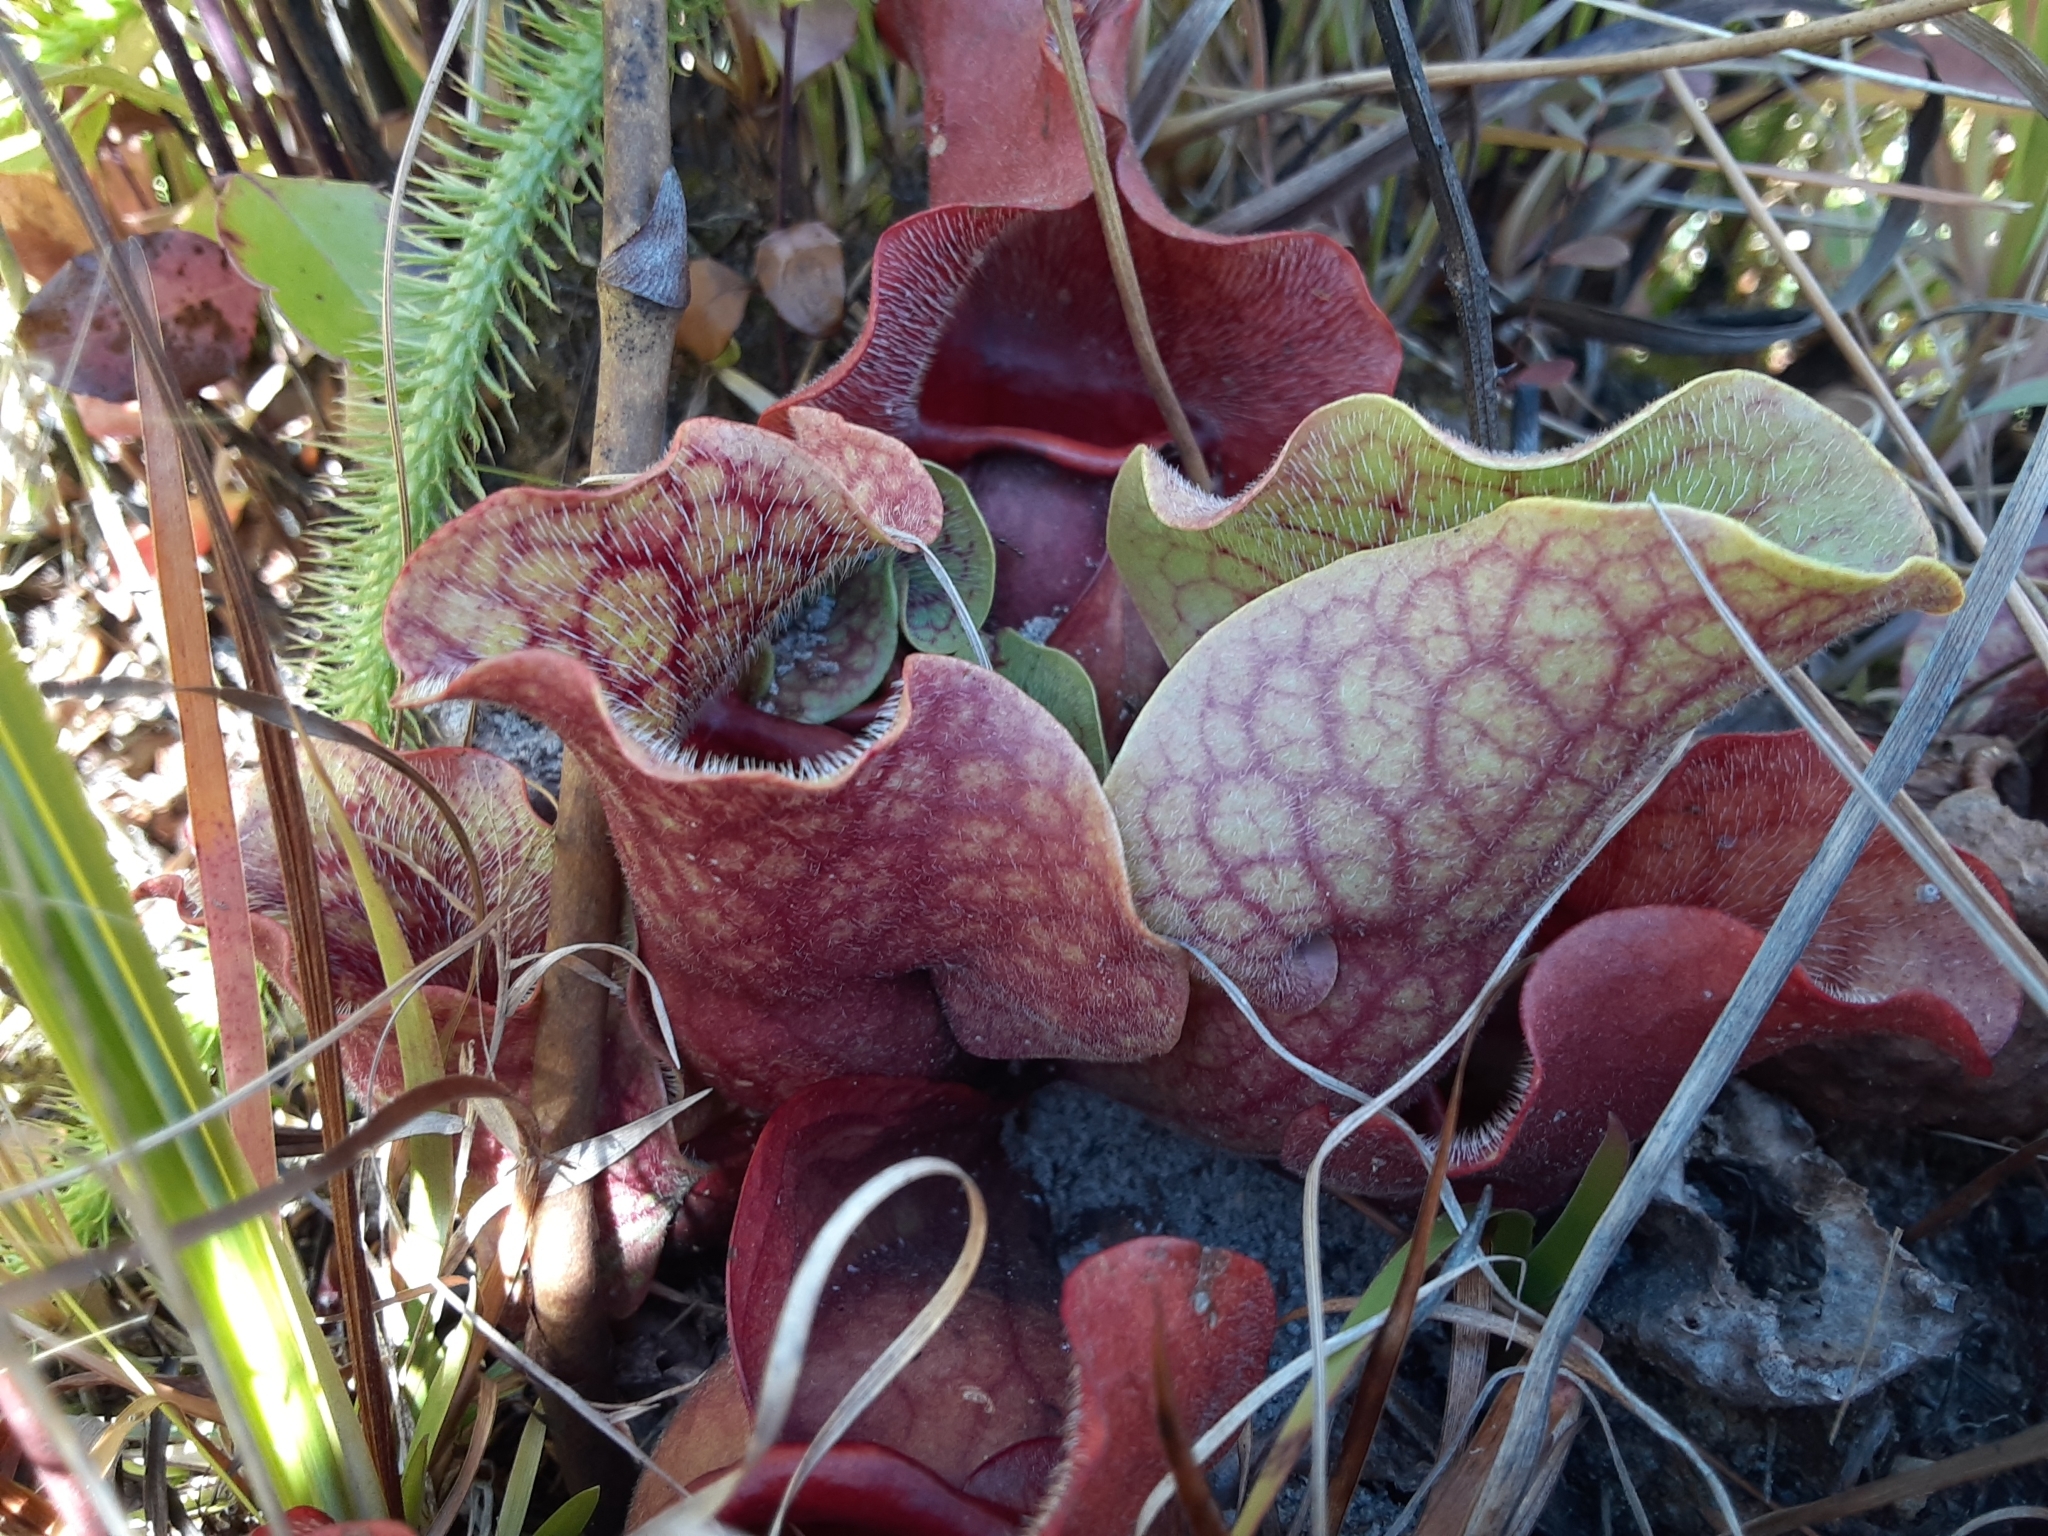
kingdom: Plantae
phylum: Tracheophyta
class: Magnoliopsida
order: Ericales
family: Sarraceniaceae
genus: Sarracenia
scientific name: Sarracenia rosea
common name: Pink pitcherplant
